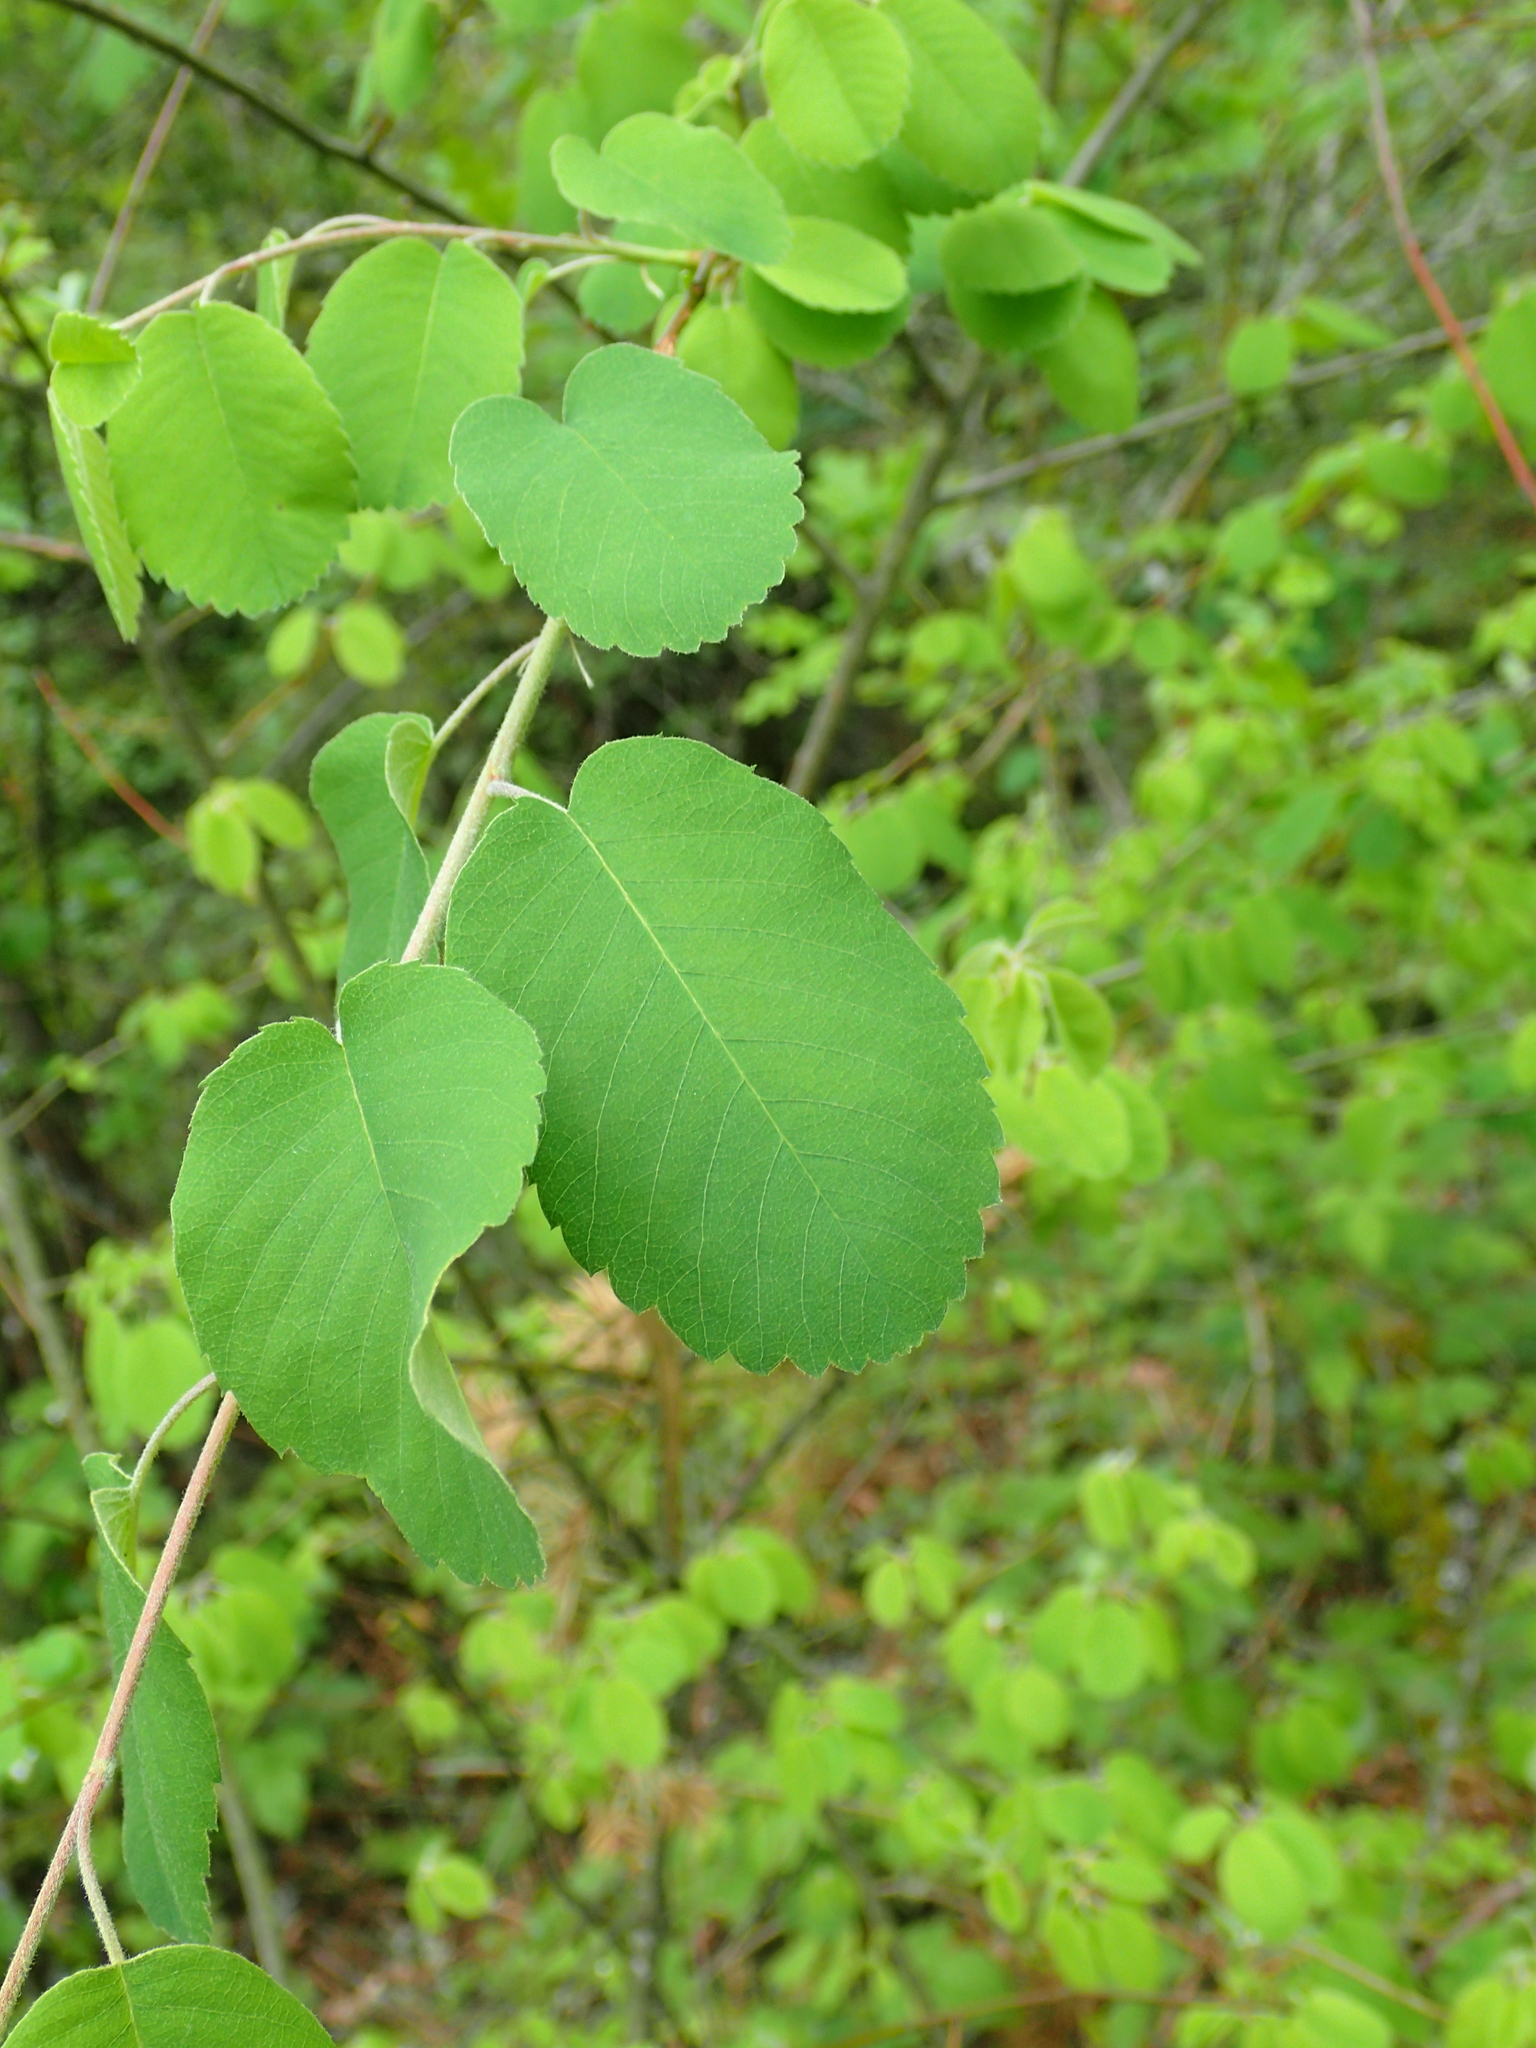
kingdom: Plantae
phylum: Tracheophyta
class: Magnoliopsida
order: Rosales
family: Rosaceae
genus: Amelanchier
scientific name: Amelanchier alnifolia
